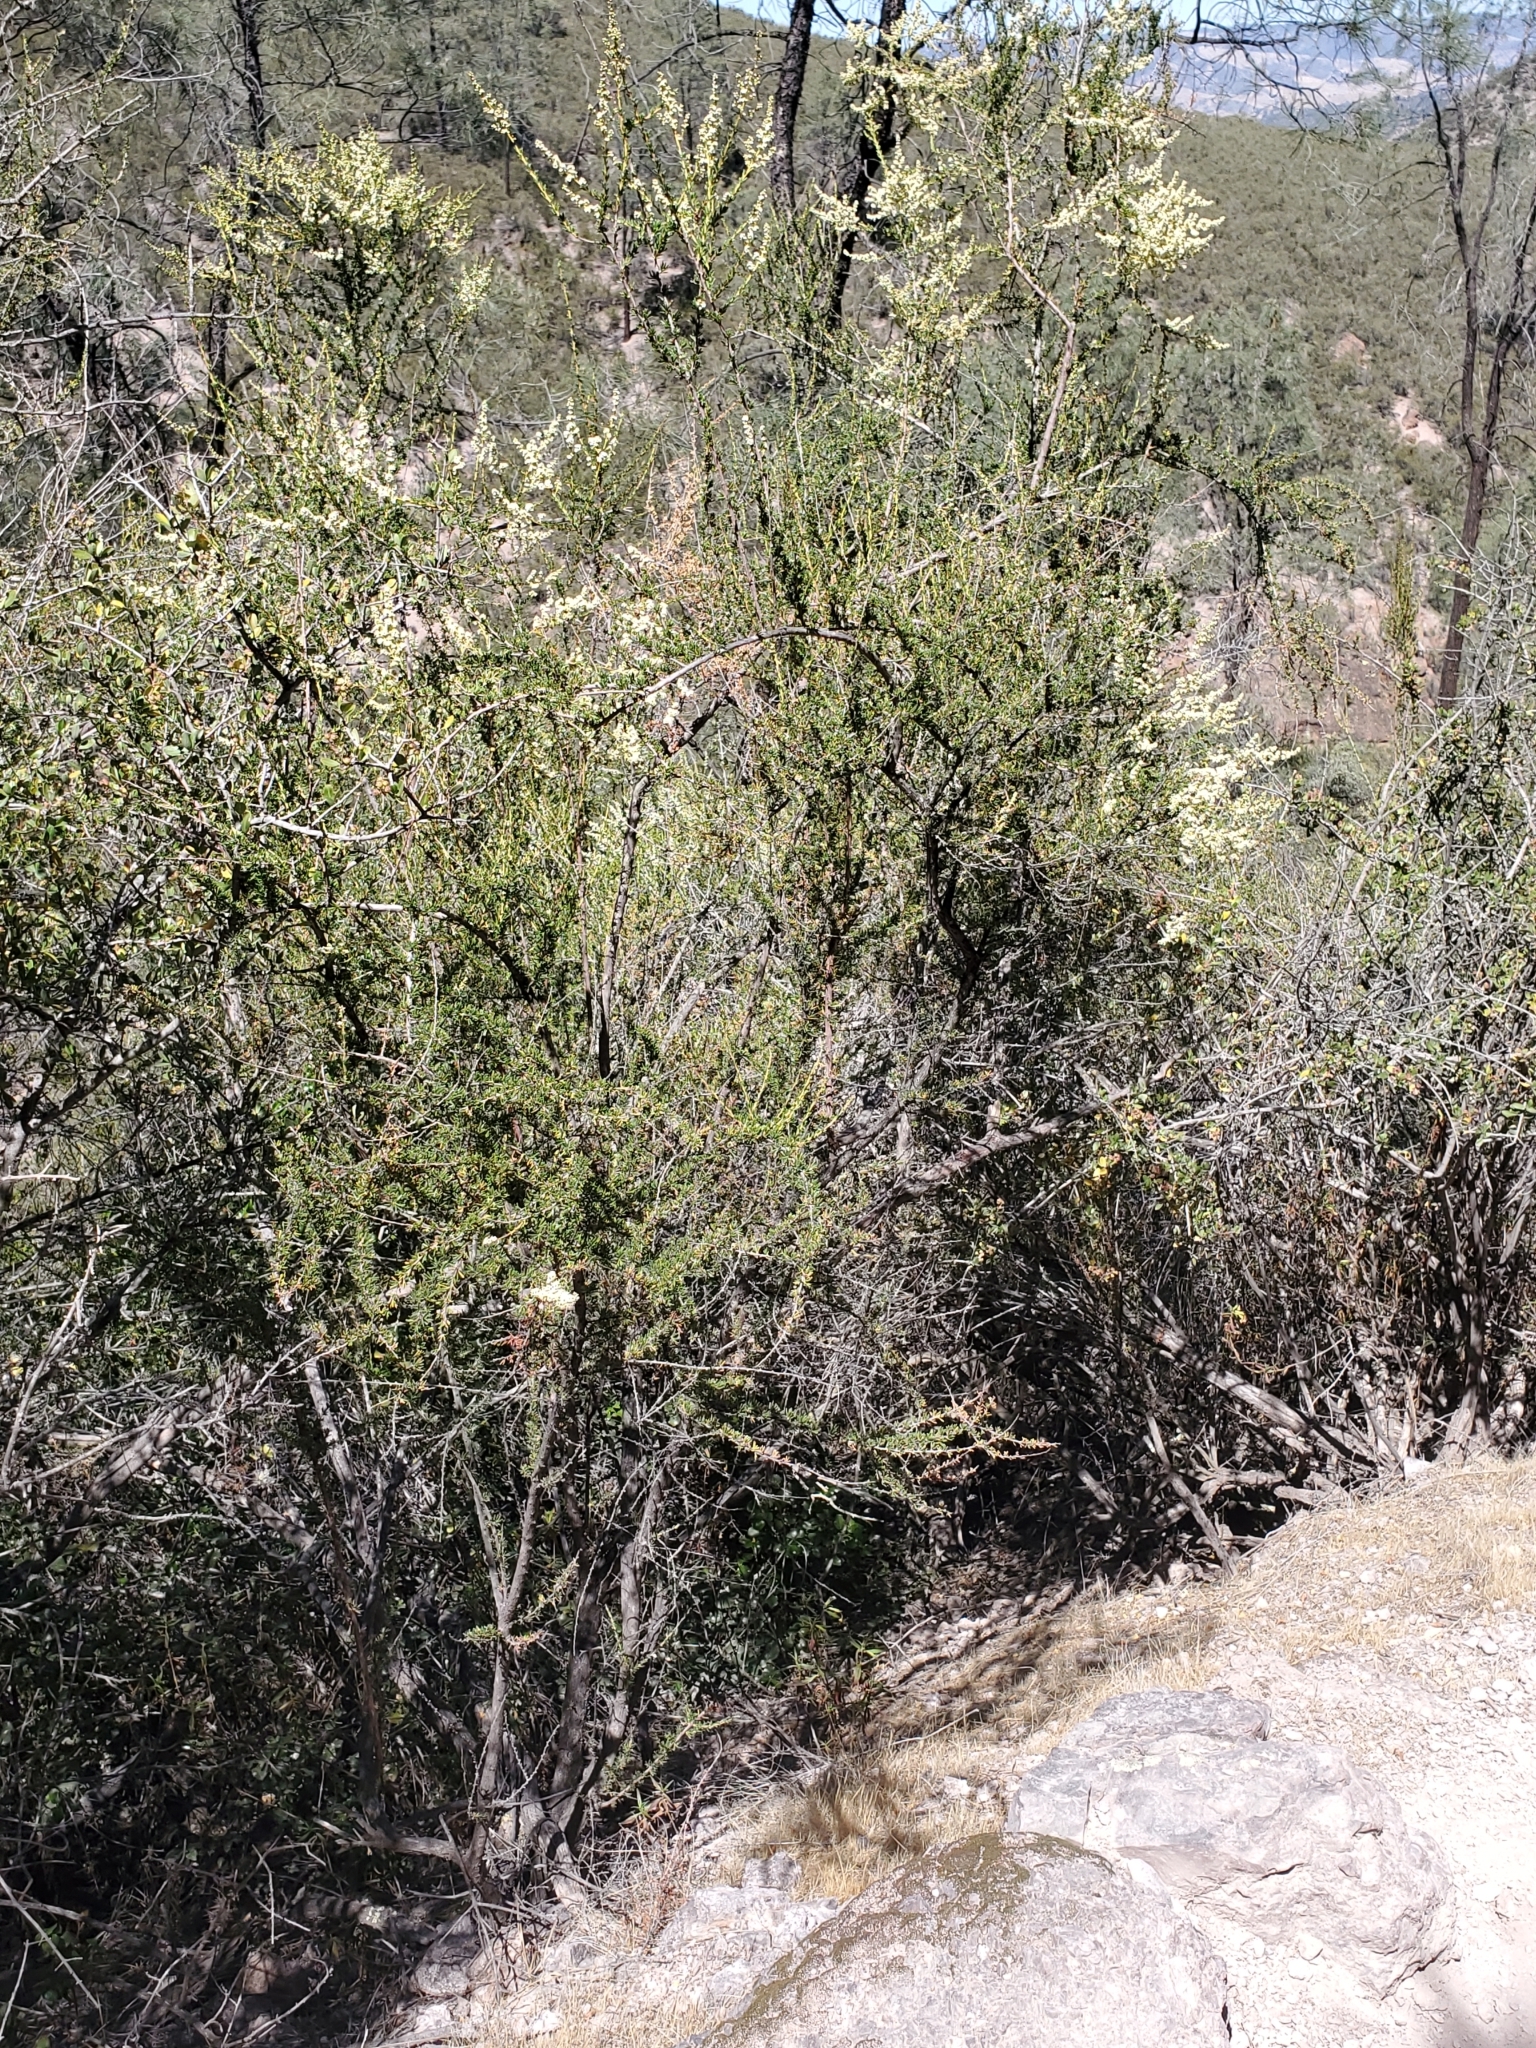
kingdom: Plantae
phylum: Tracheophyta
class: Magnoliopsida
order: Rosales
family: Rosaceae
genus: Adenostoma
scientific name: Adenostoma fasciculatum
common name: Chamise
